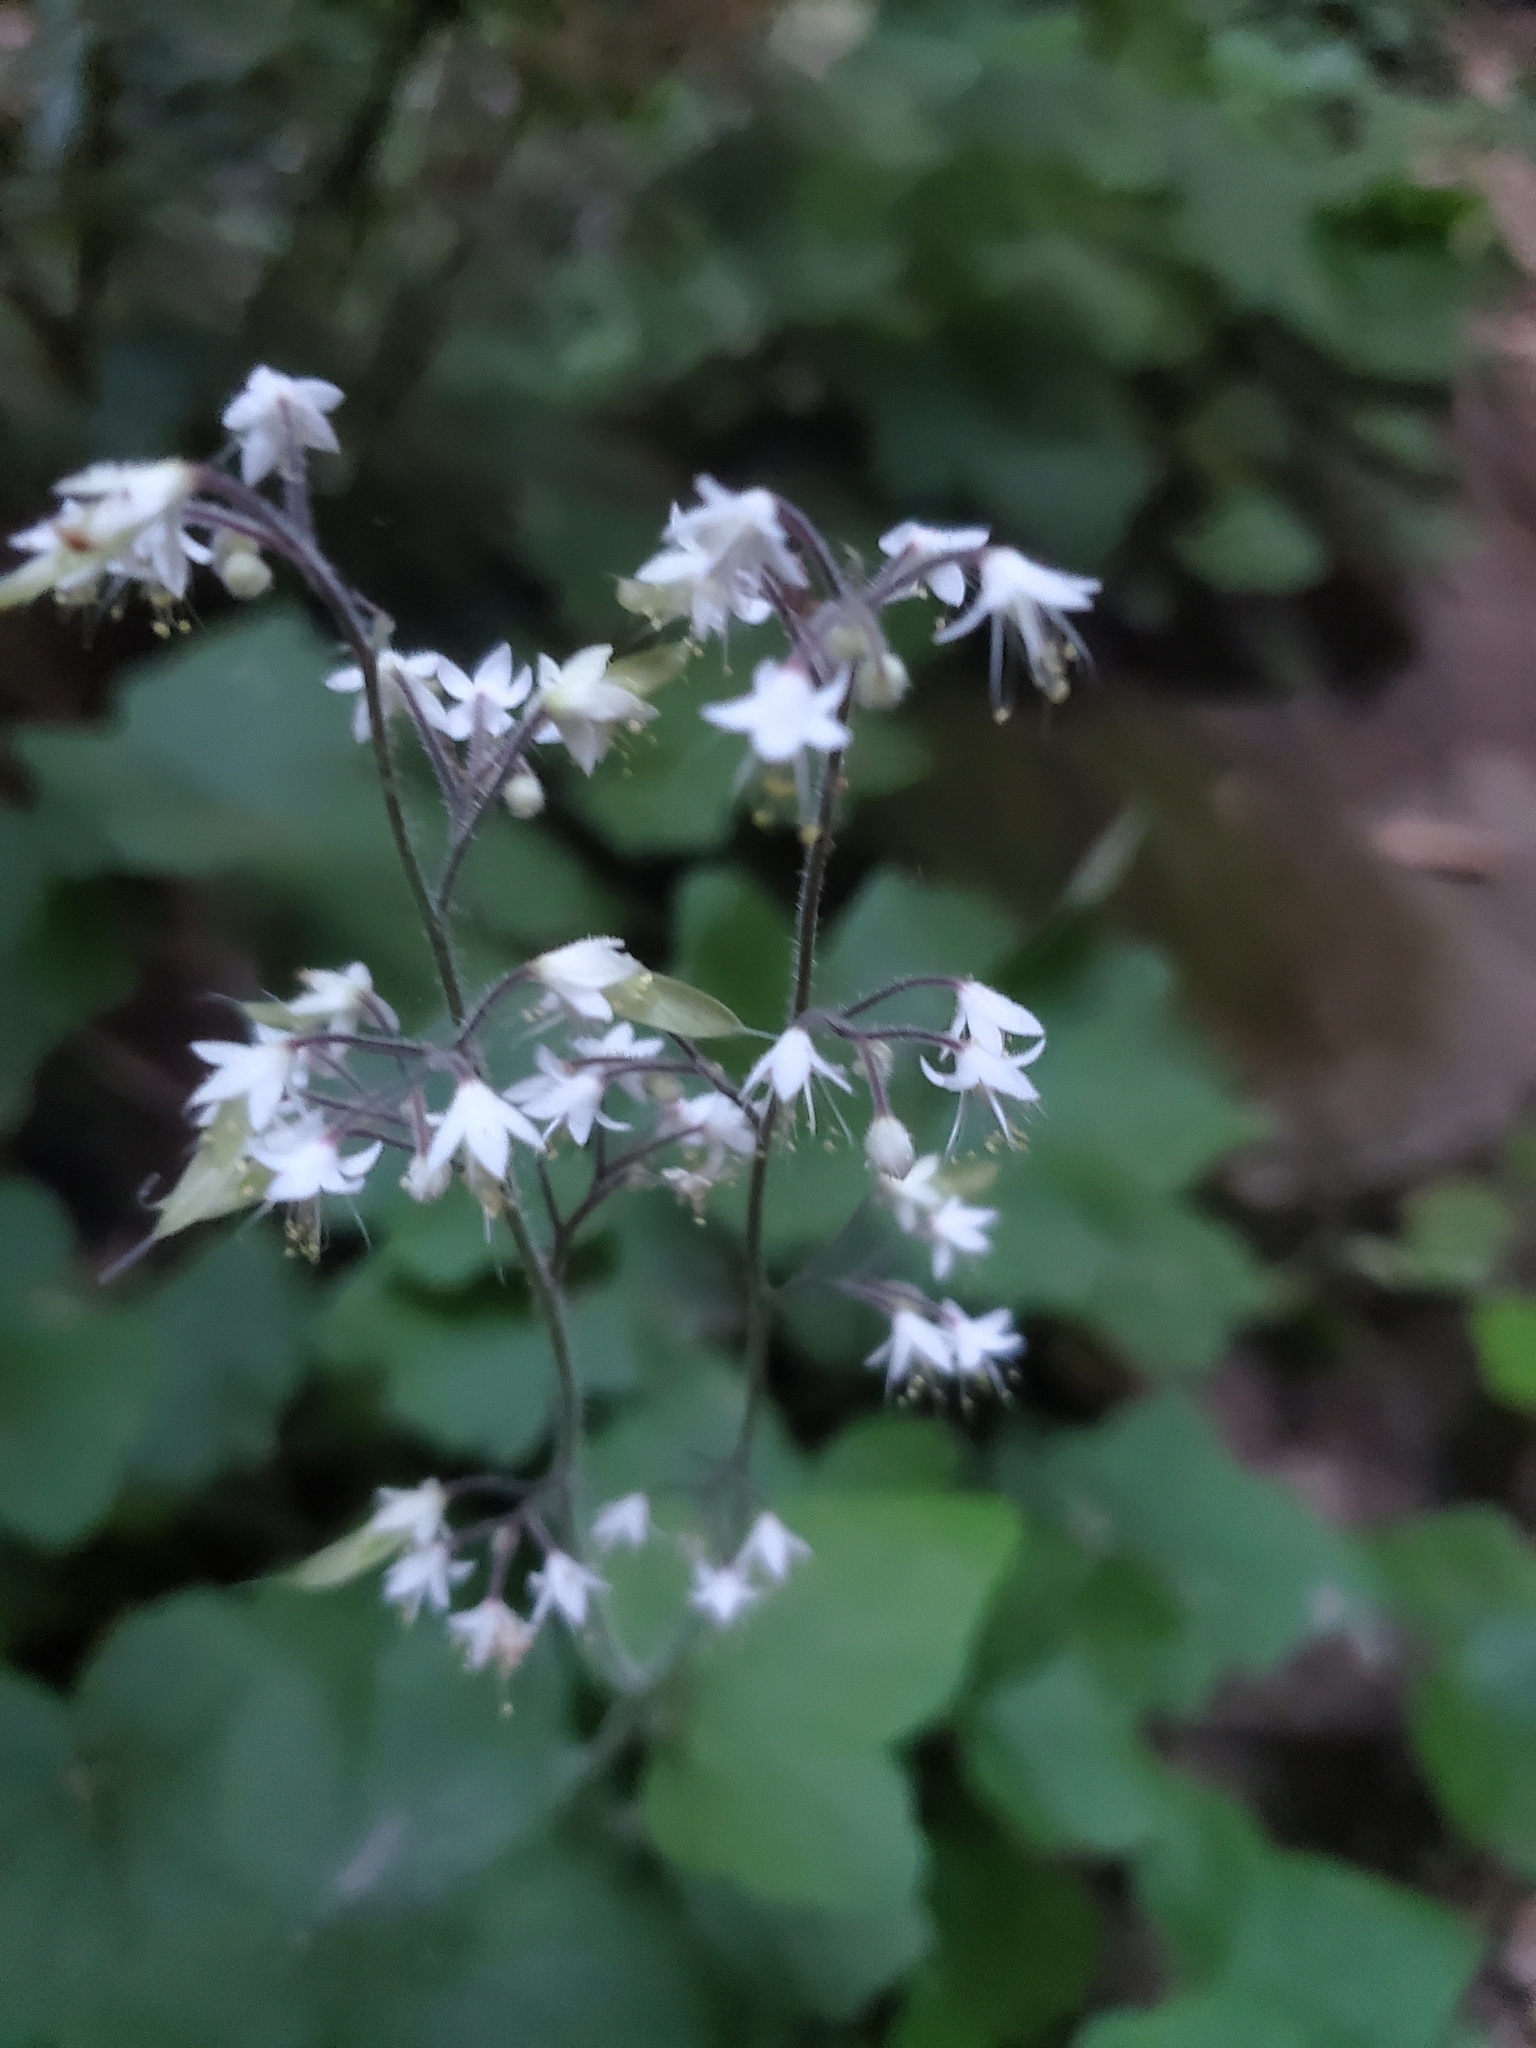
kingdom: Plantae
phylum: Tracheophyta
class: Magnoliopsida
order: Saxifragales
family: Saxifragaceae
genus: Tiarella
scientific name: Tiarella trifoliata
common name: Sugar-scoop
